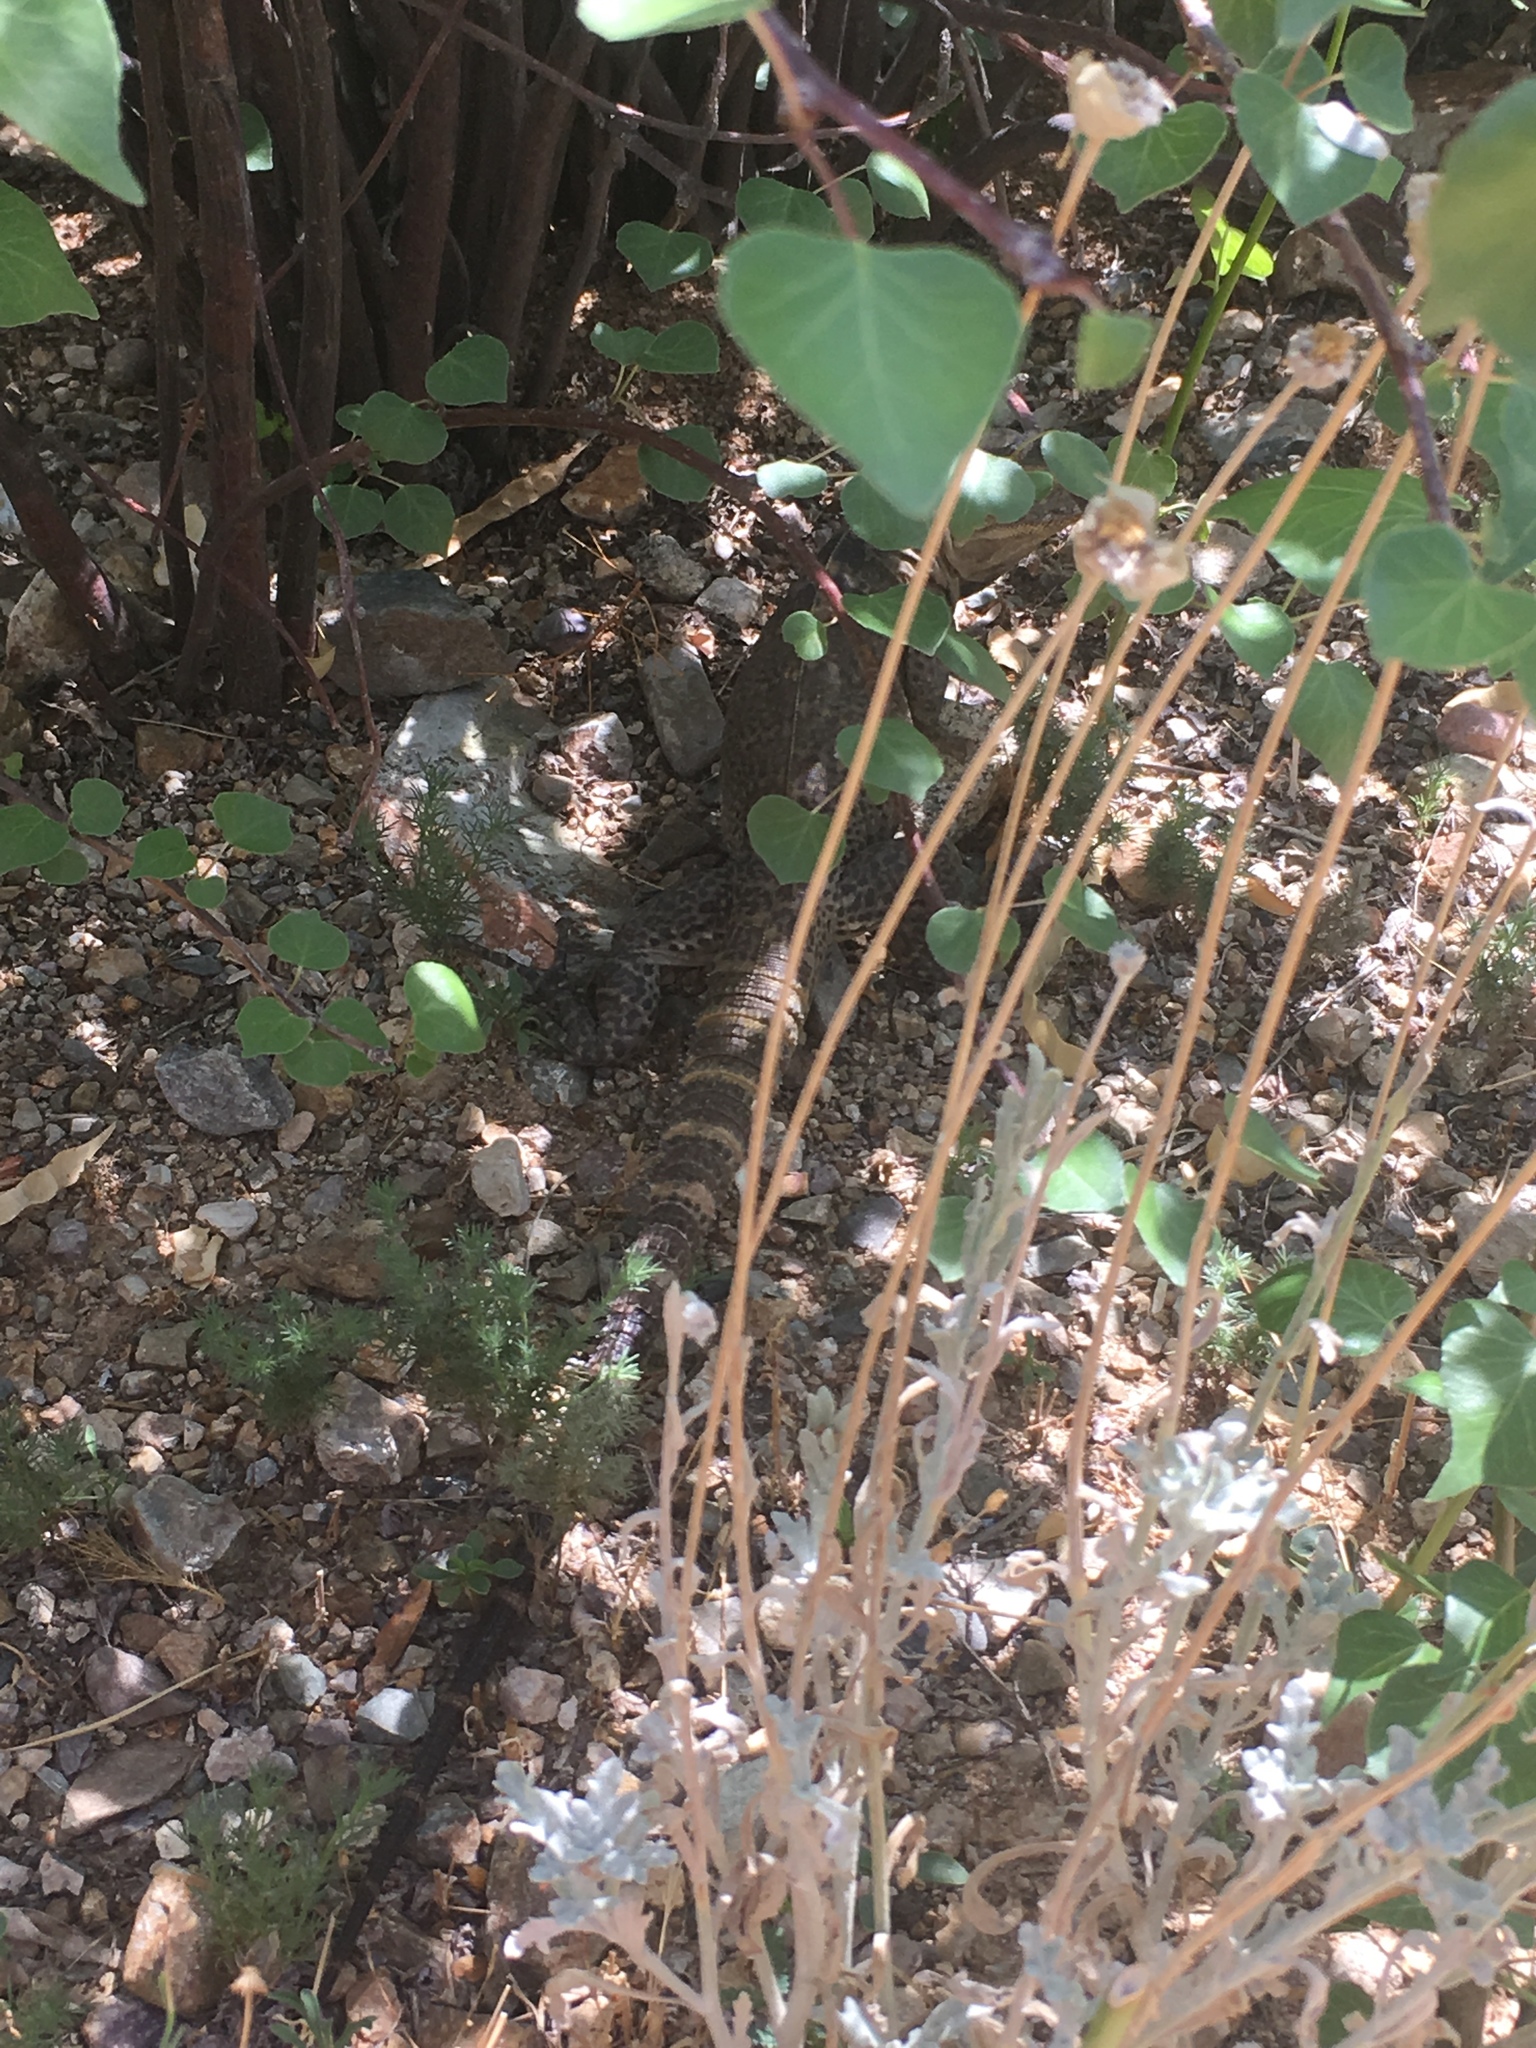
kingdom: Animalia
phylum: Chordata
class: Squamata
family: Iguanidae
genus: Ctenosaura
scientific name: Ctenosaura
